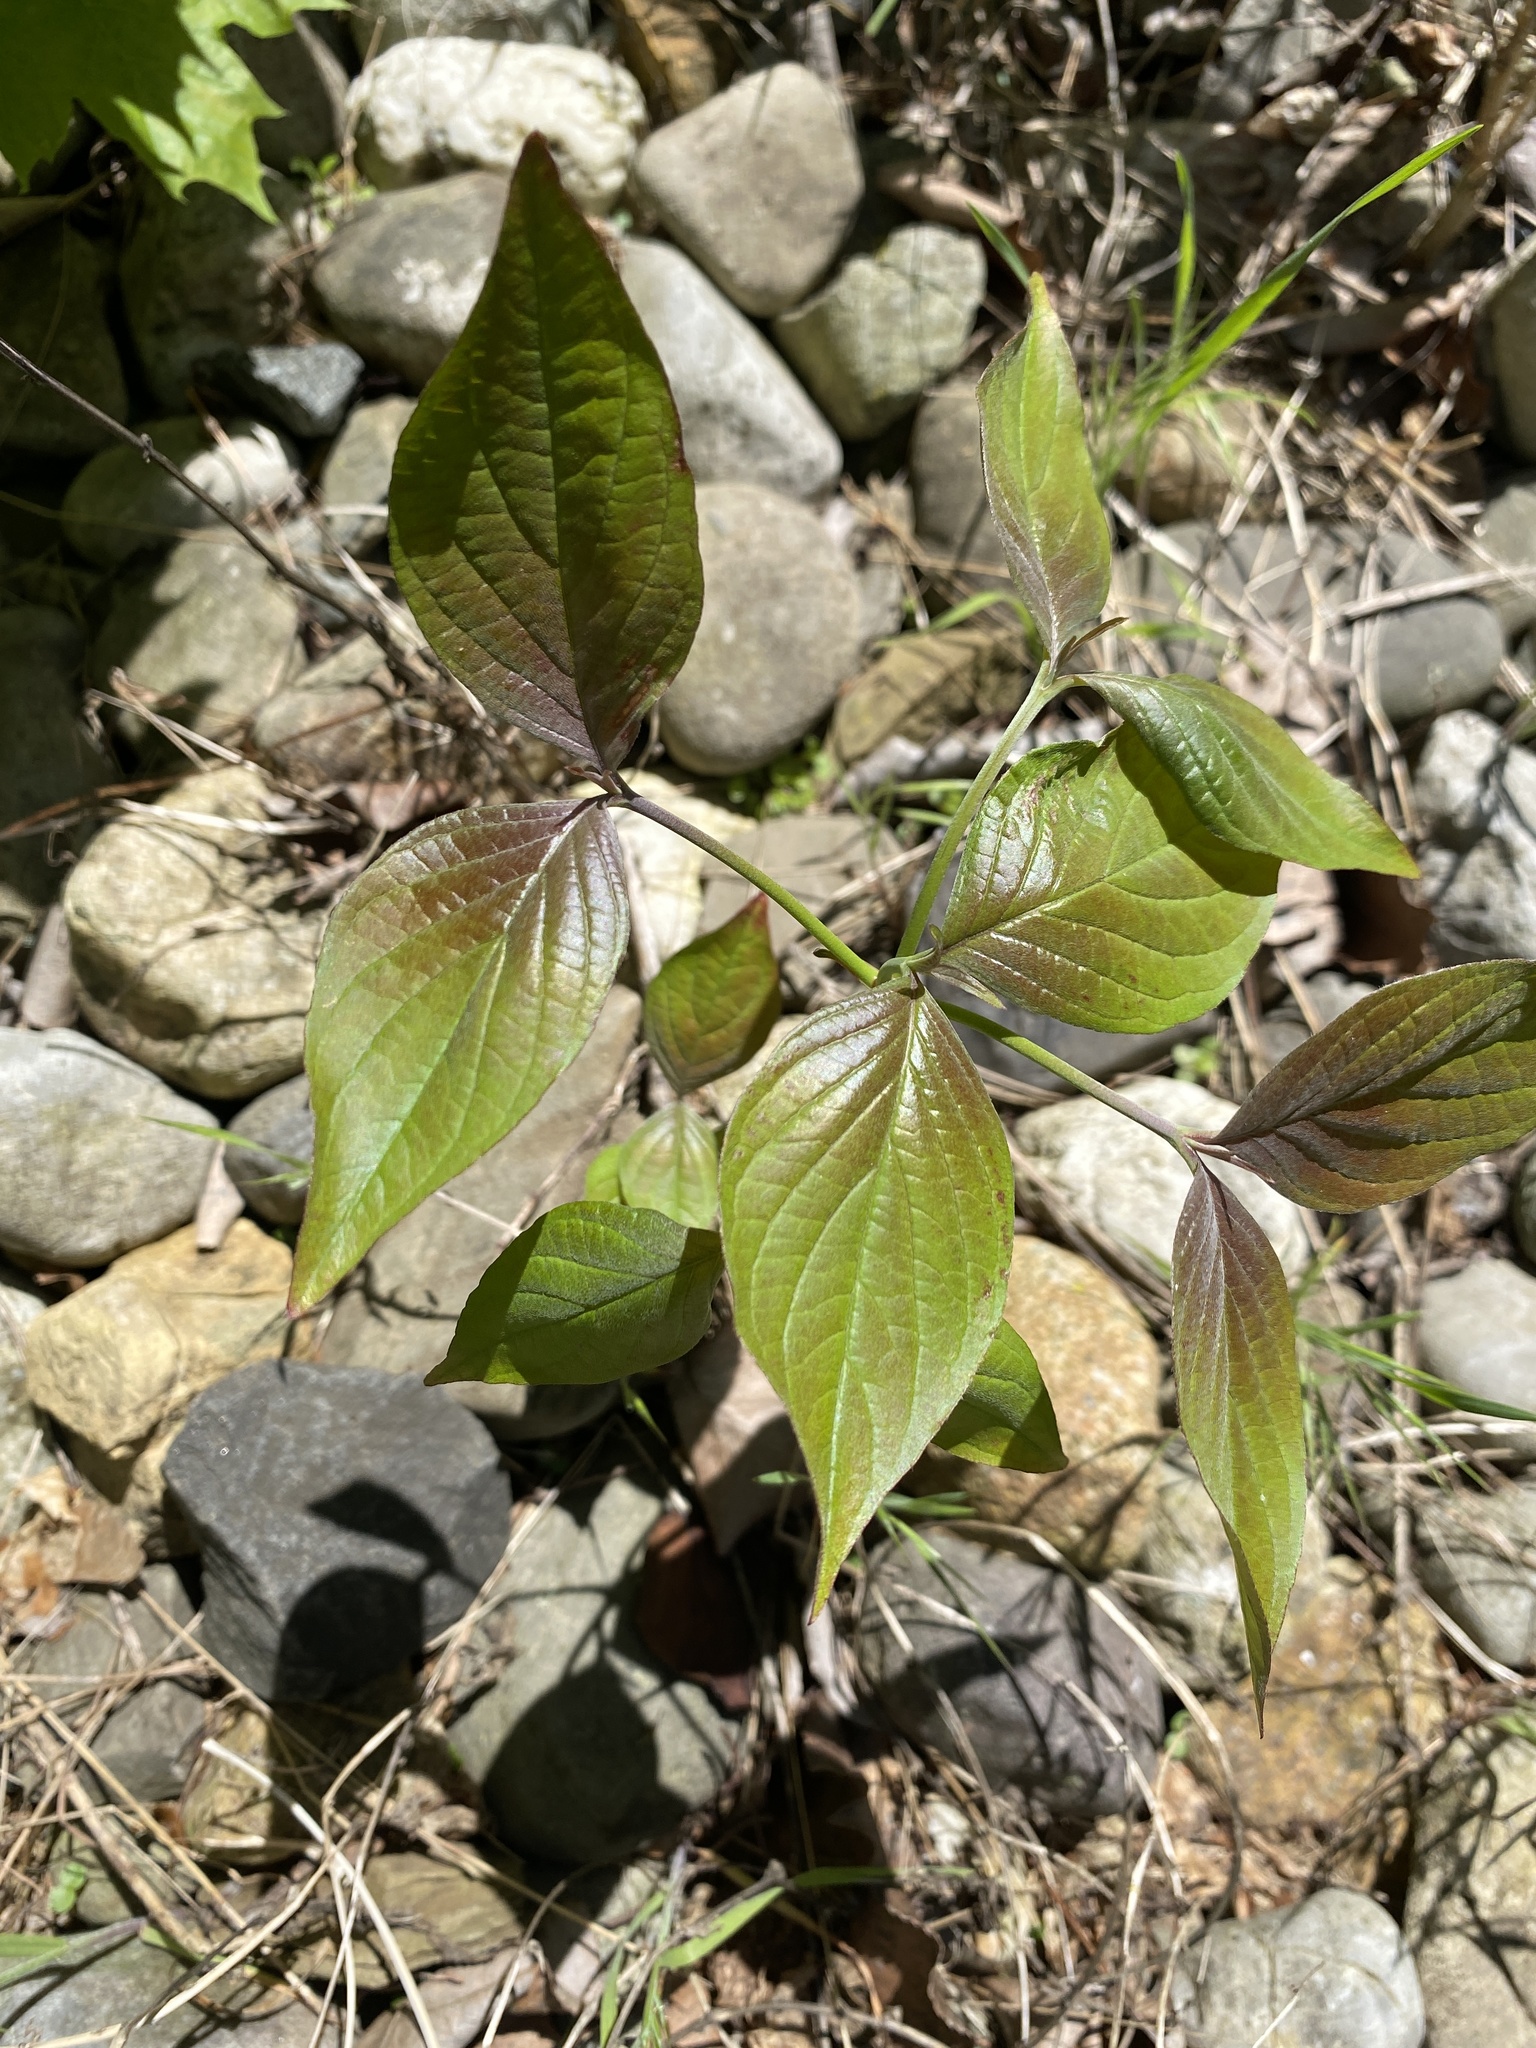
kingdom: Plantae
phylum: Tracheophyta
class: Magnoliopsida
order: Cornales
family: Cornaceae
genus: Cornus
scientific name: Cornus florida
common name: Flowering dogwood
